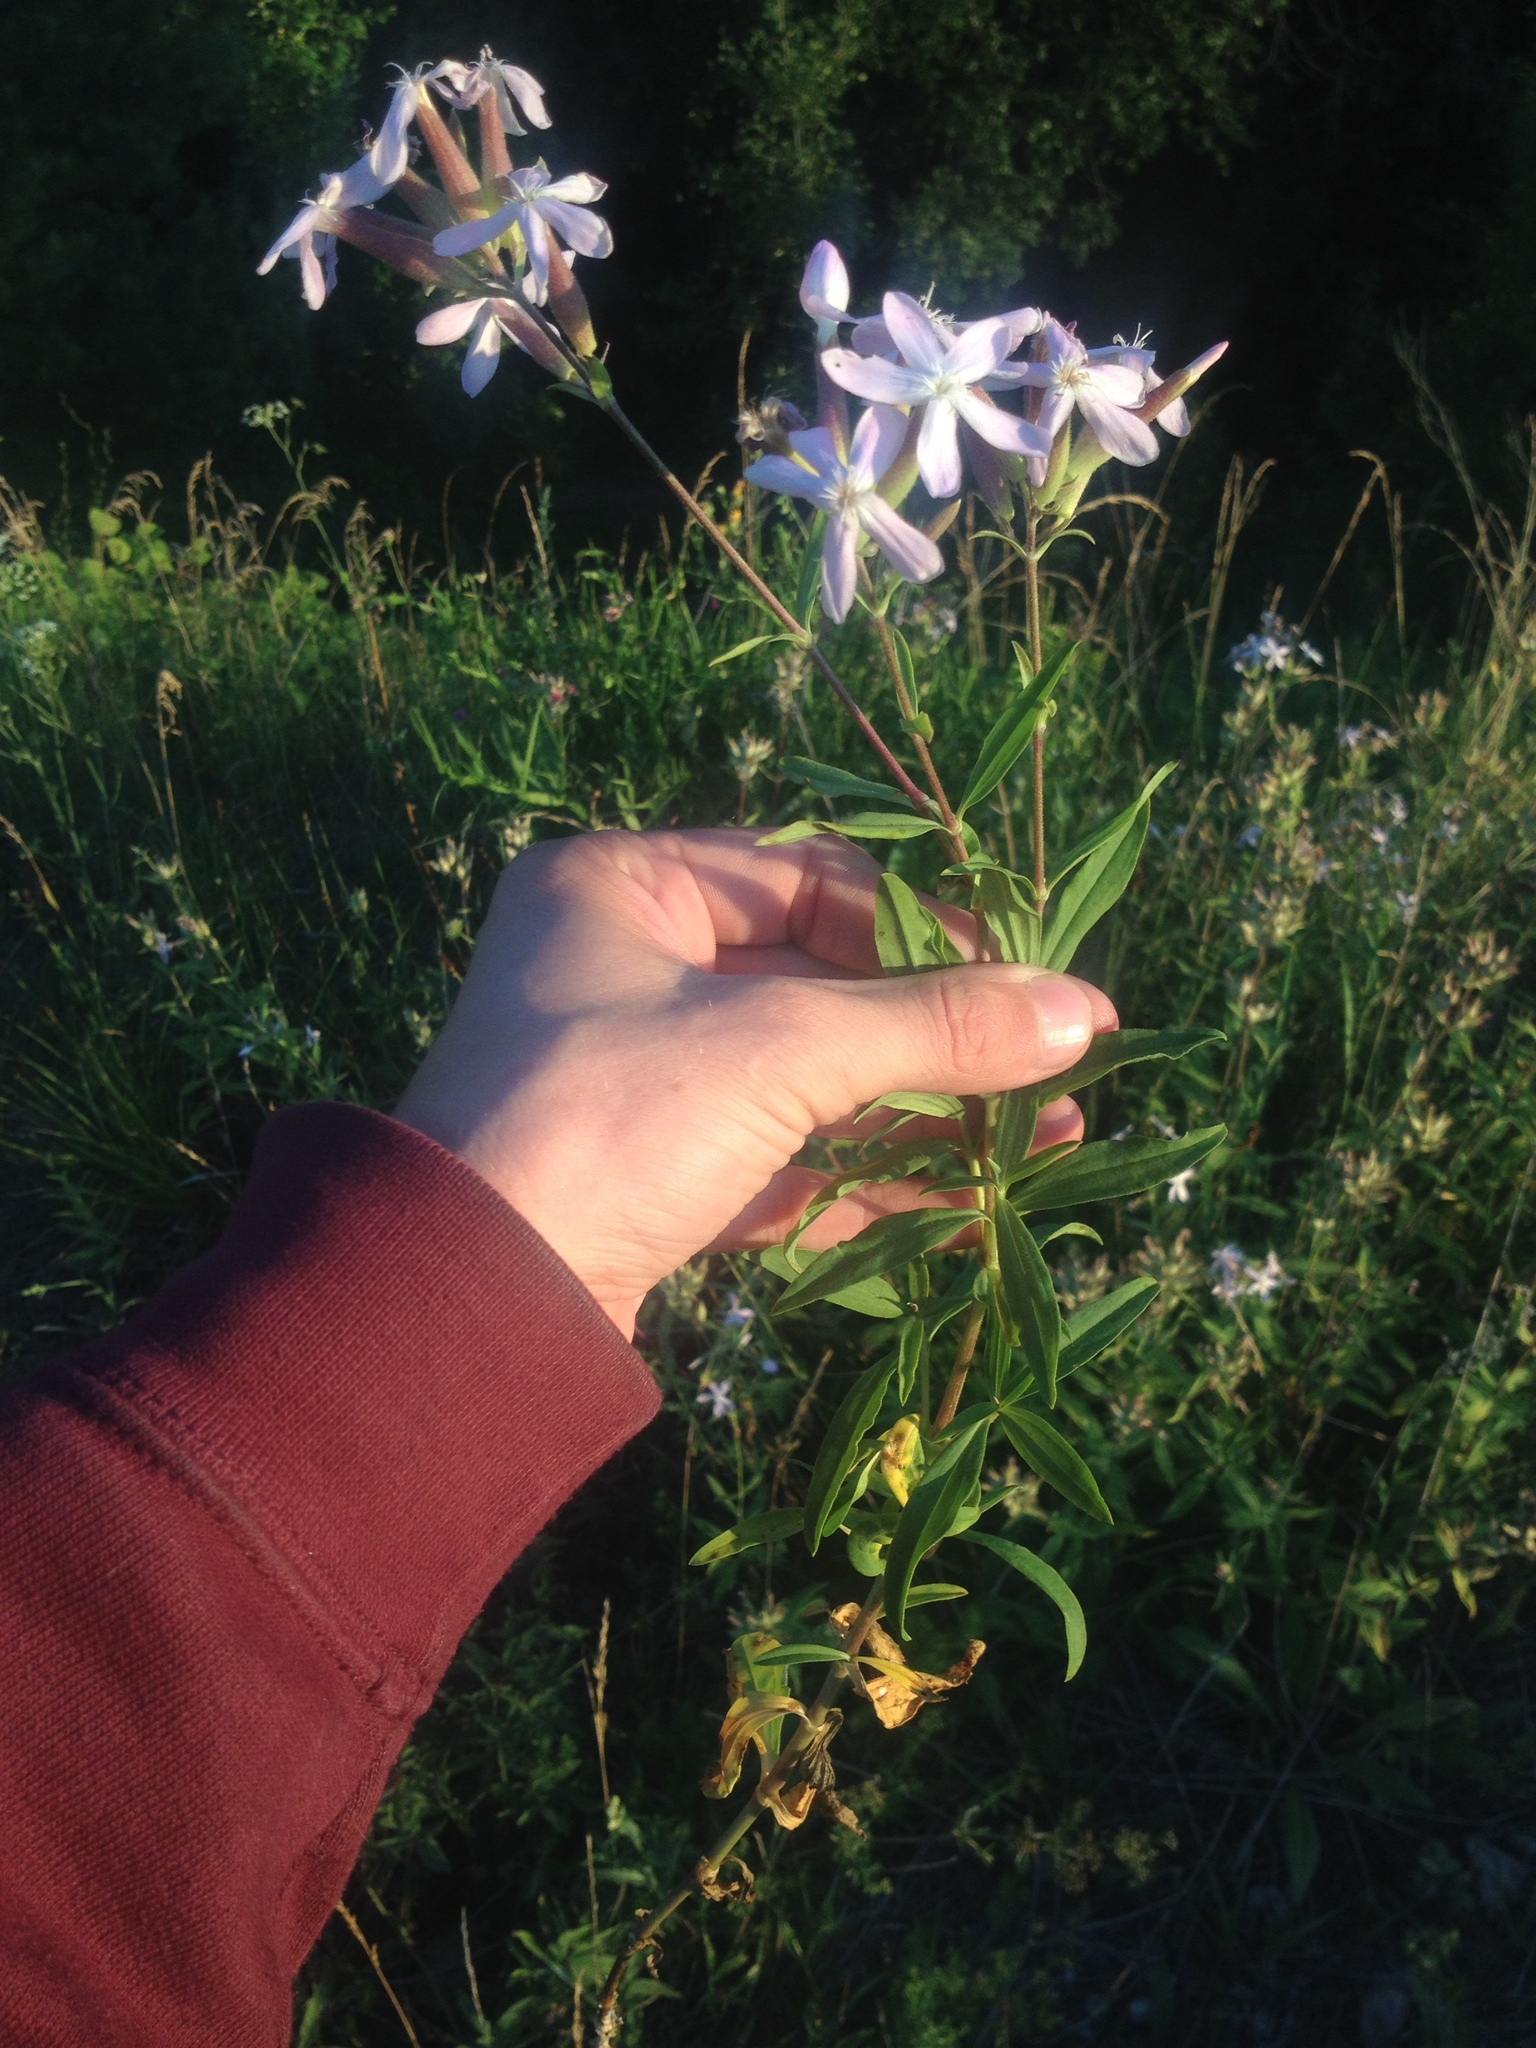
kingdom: Plantae
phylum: Tracheophyta
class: Magnoliopsida
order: Caryophyllales
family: Caryophyllaceae
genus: Saponaria
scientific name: Saponaria officinalis
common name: Soapwort
